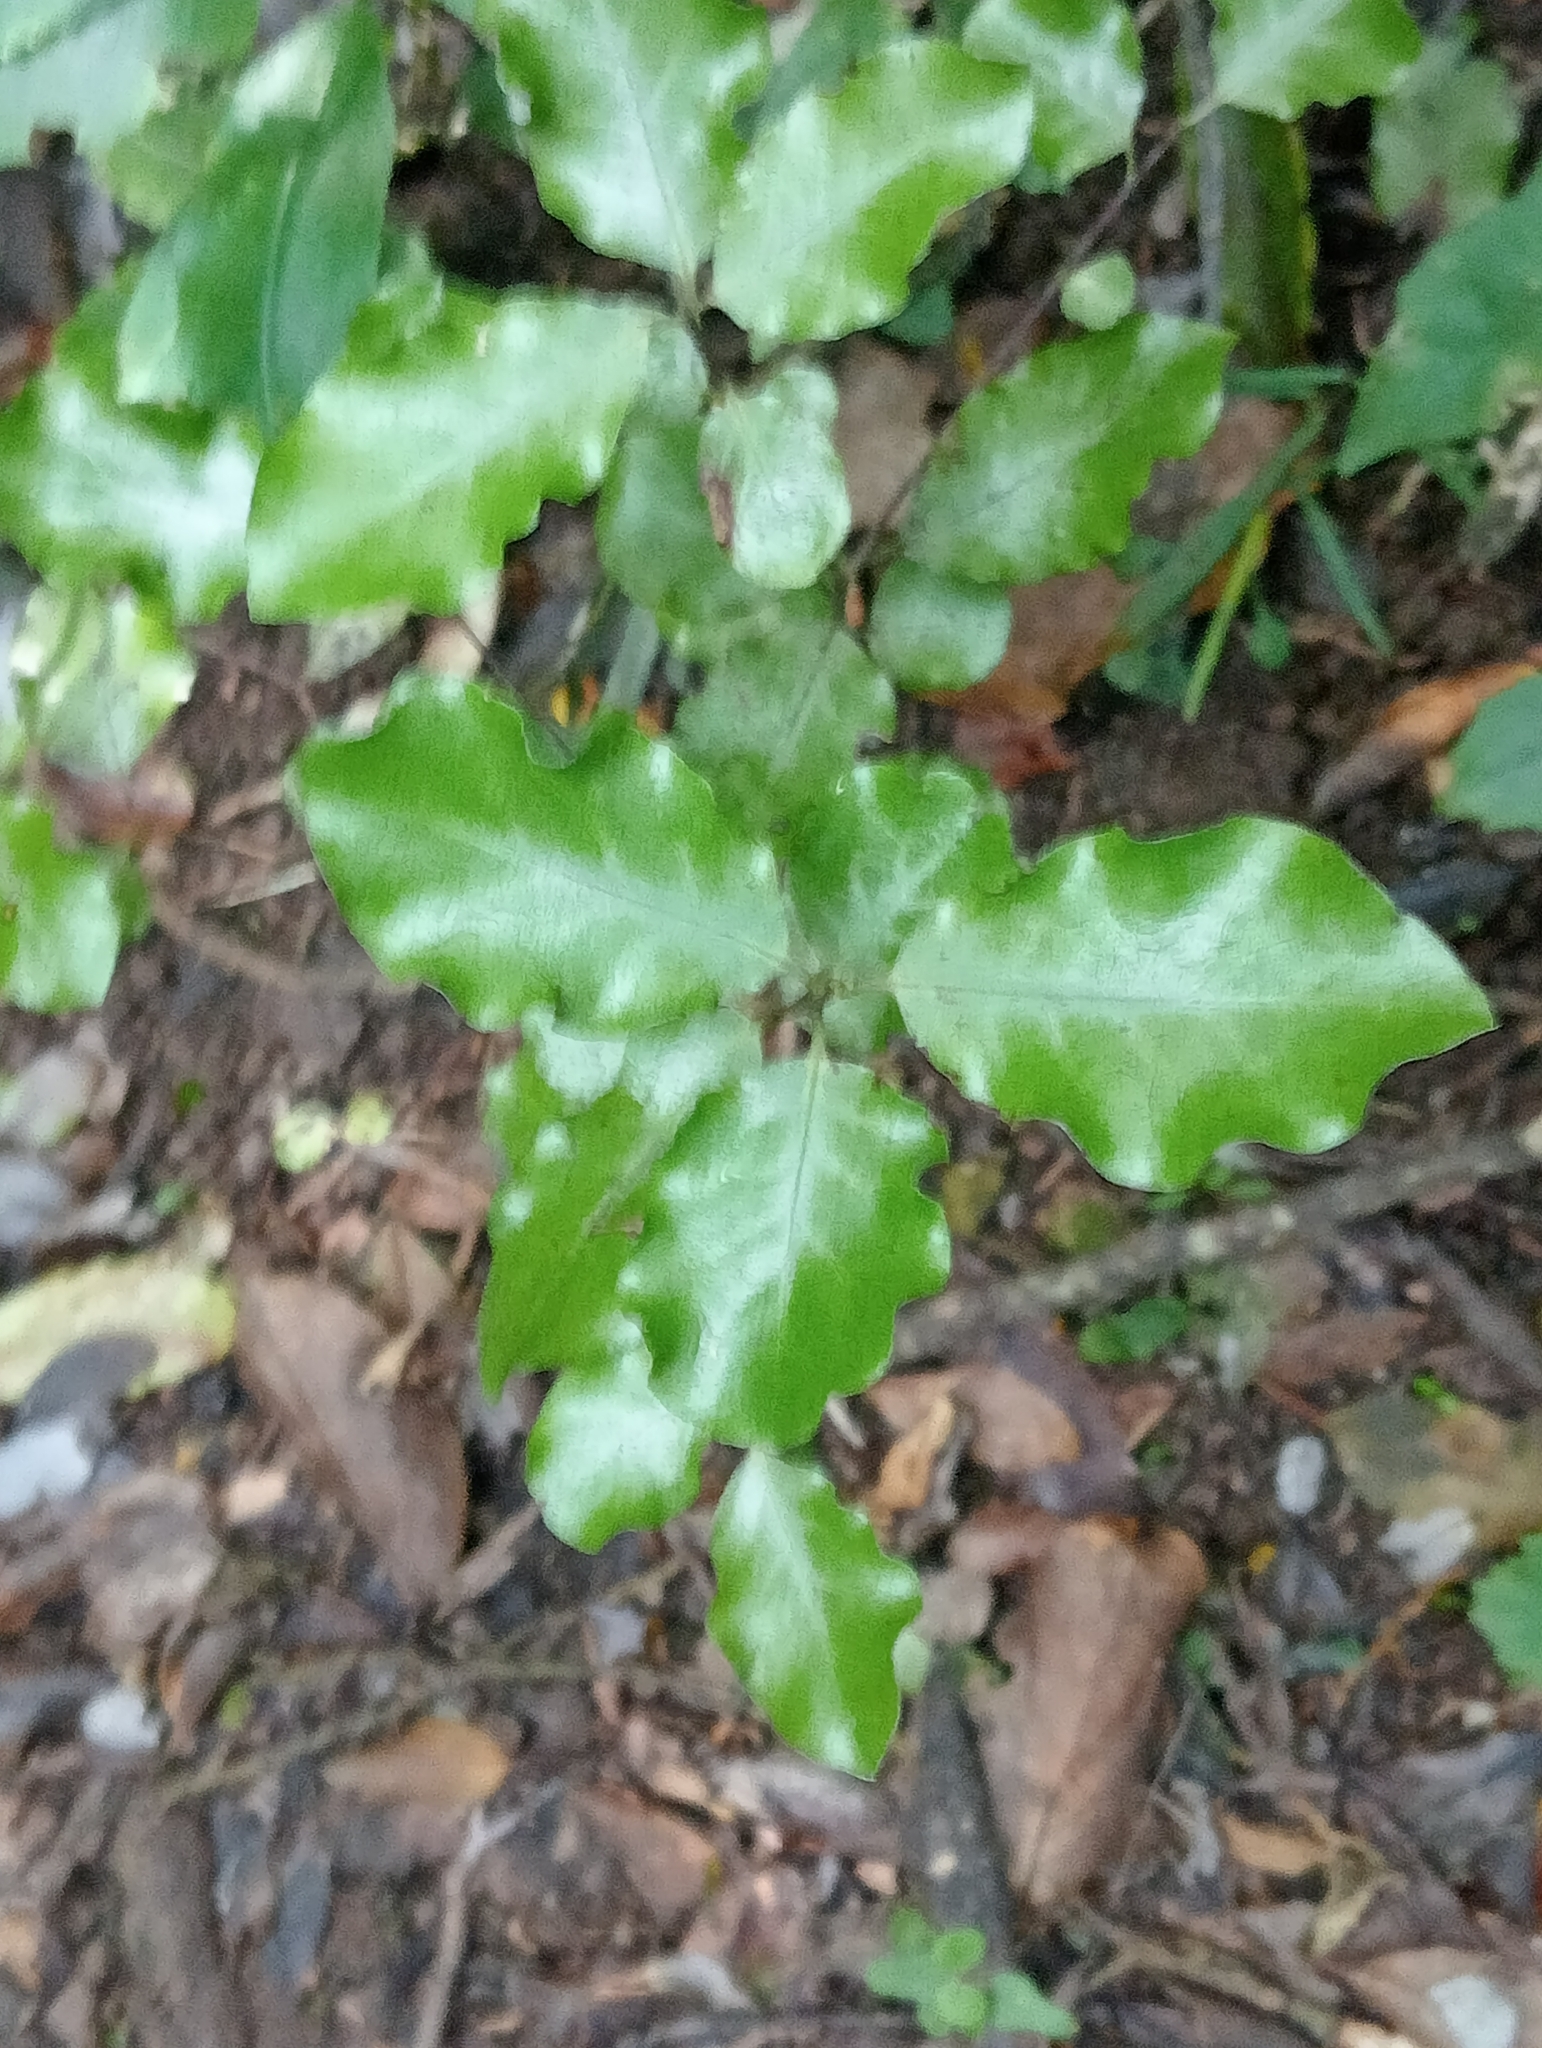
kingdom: Plantae
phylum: Tracheophyta
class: Magnoliopsida
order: Apiales
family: Pittosporaceae
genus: Pittosporum
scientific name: Pittosporum tenuifolium
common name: Kohuhu
